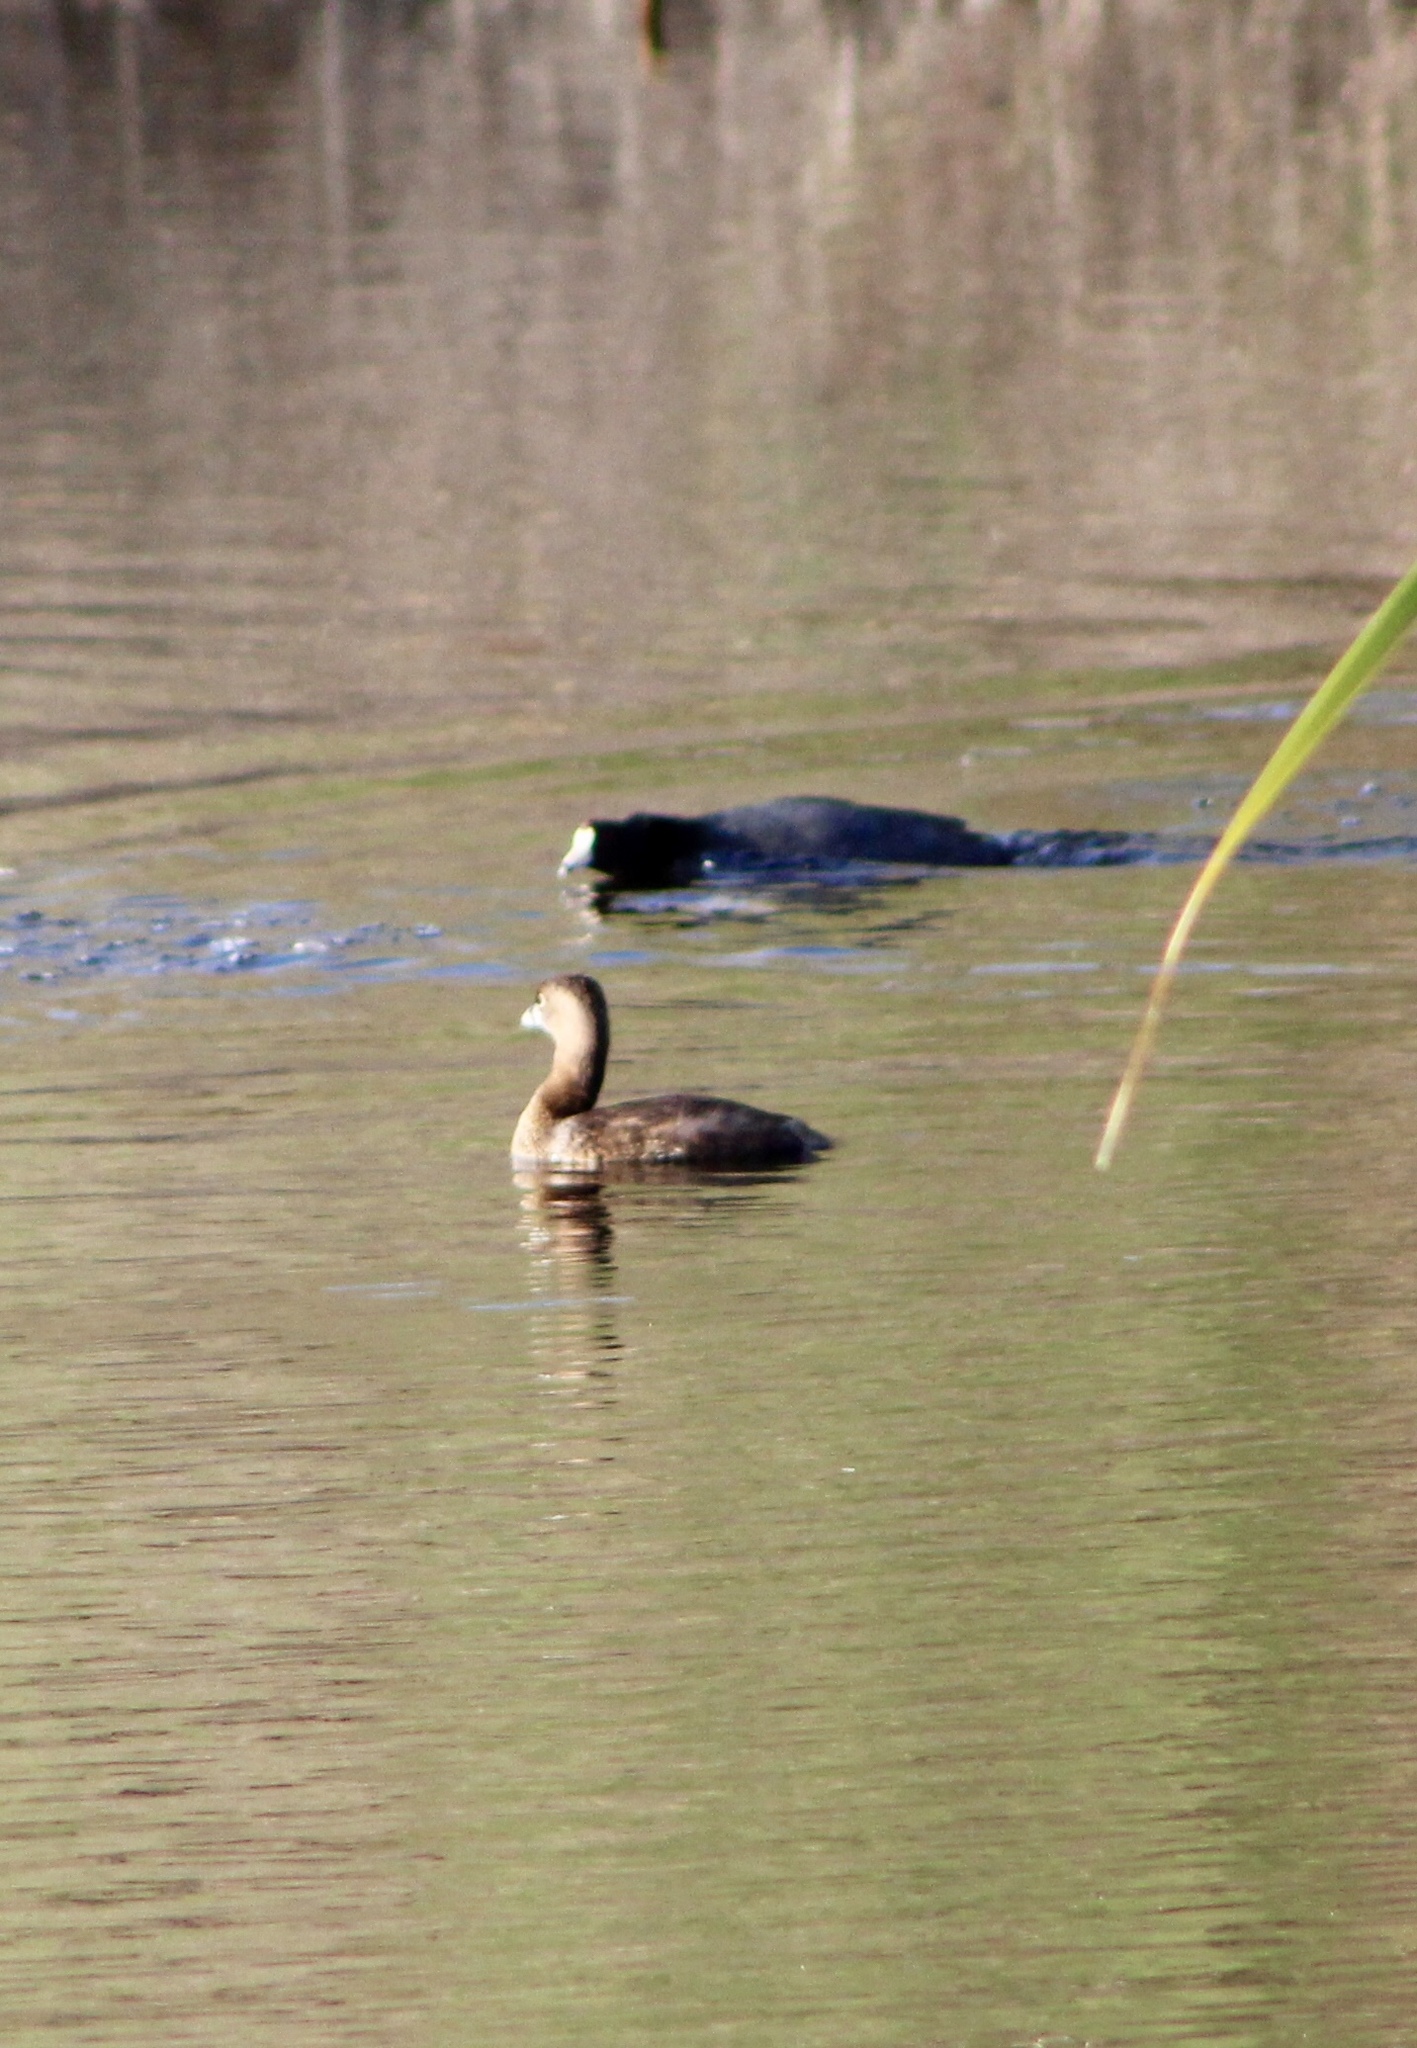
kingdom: Animalia
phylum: Chordata
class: Aves
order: Gruiformes
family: Rallidae
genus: Fulica
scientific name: Fulica americana
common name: American coot
